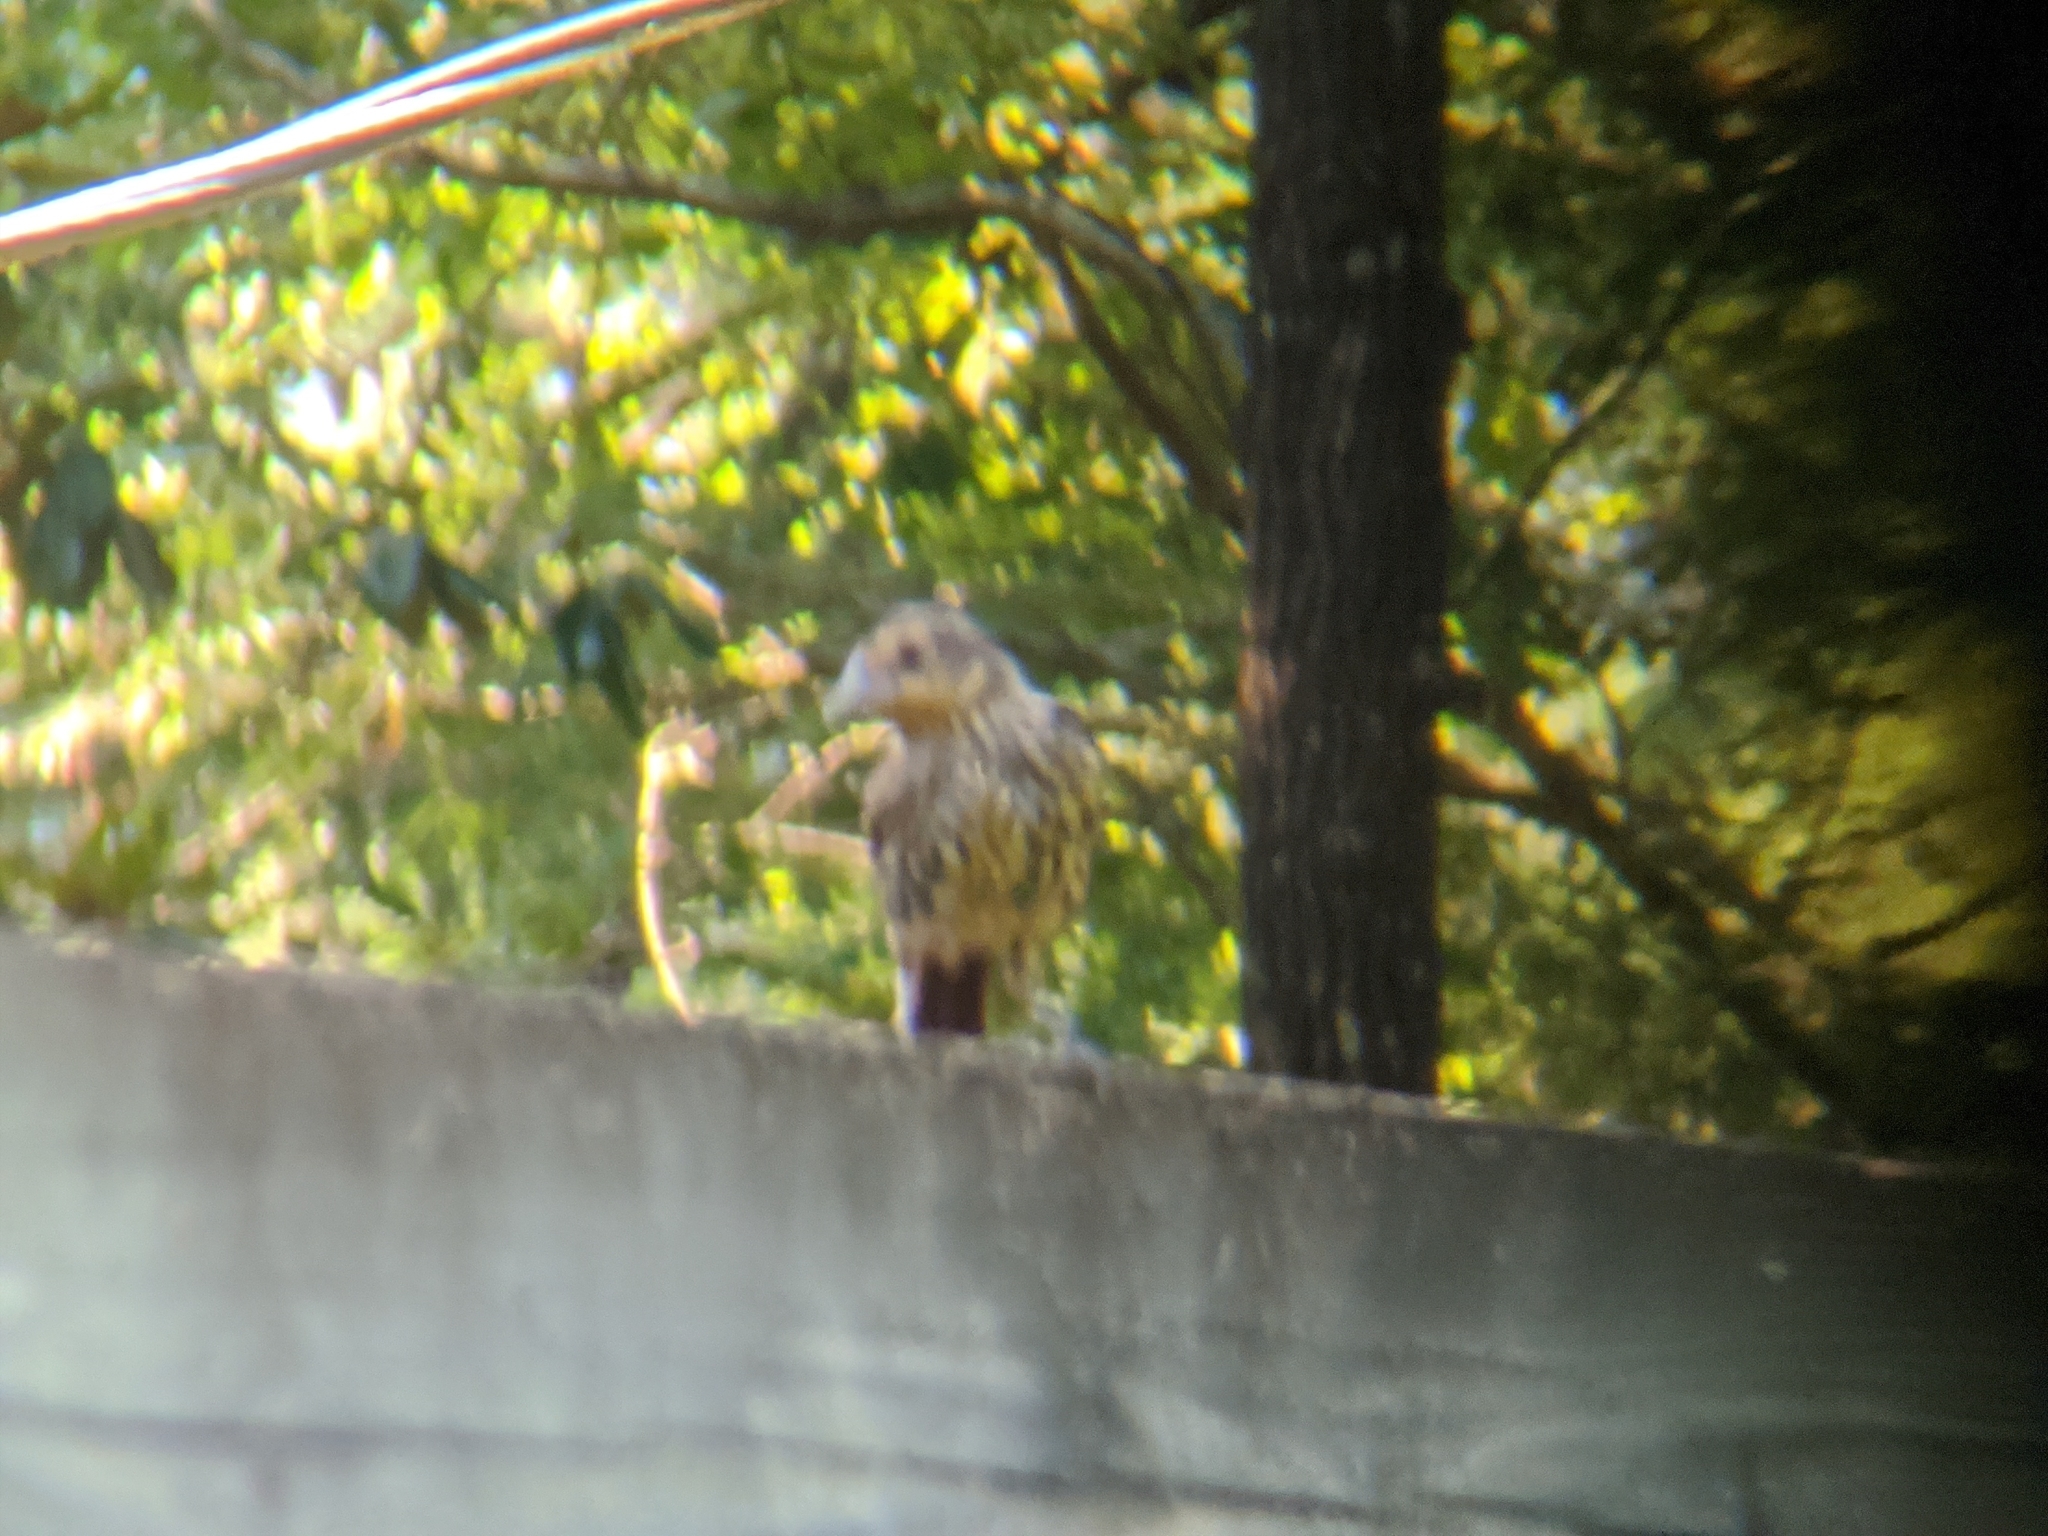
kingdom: Animalia
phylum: Chordata
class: Aves
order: Passeriformes
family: Icteridae
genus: Agelaius
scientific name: Agelaius phoeniceus
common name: Red-winged blackbird
